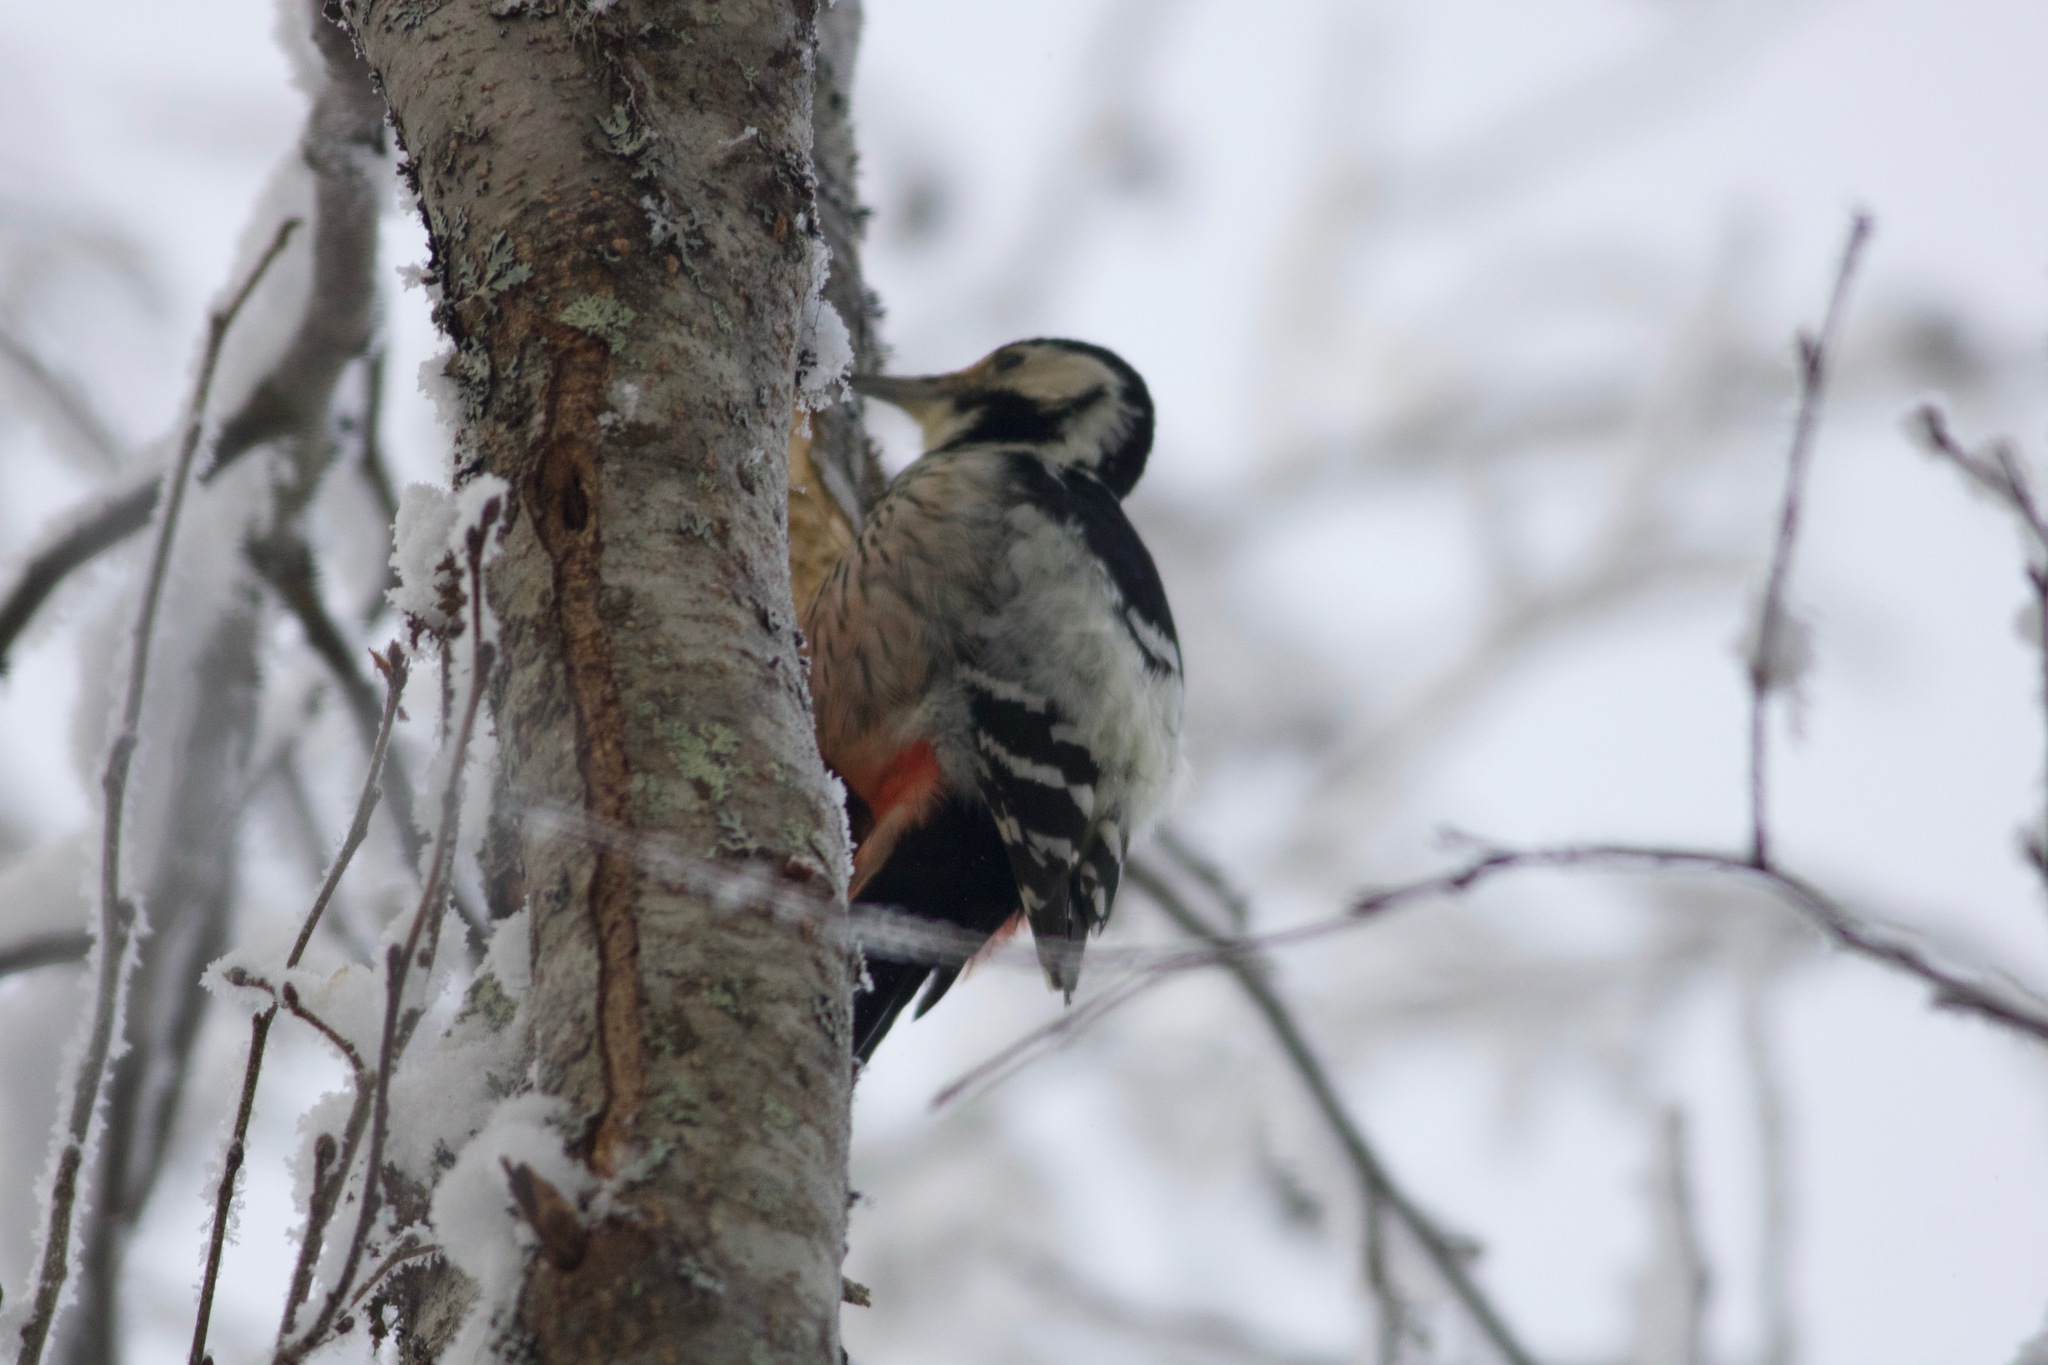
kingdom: Animalia
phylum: Chordata
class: Aves
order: Piciformes
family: Picidae
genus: Dendrocopos
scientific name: Dendrocopos leucotos
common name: White-backed woodpecker
